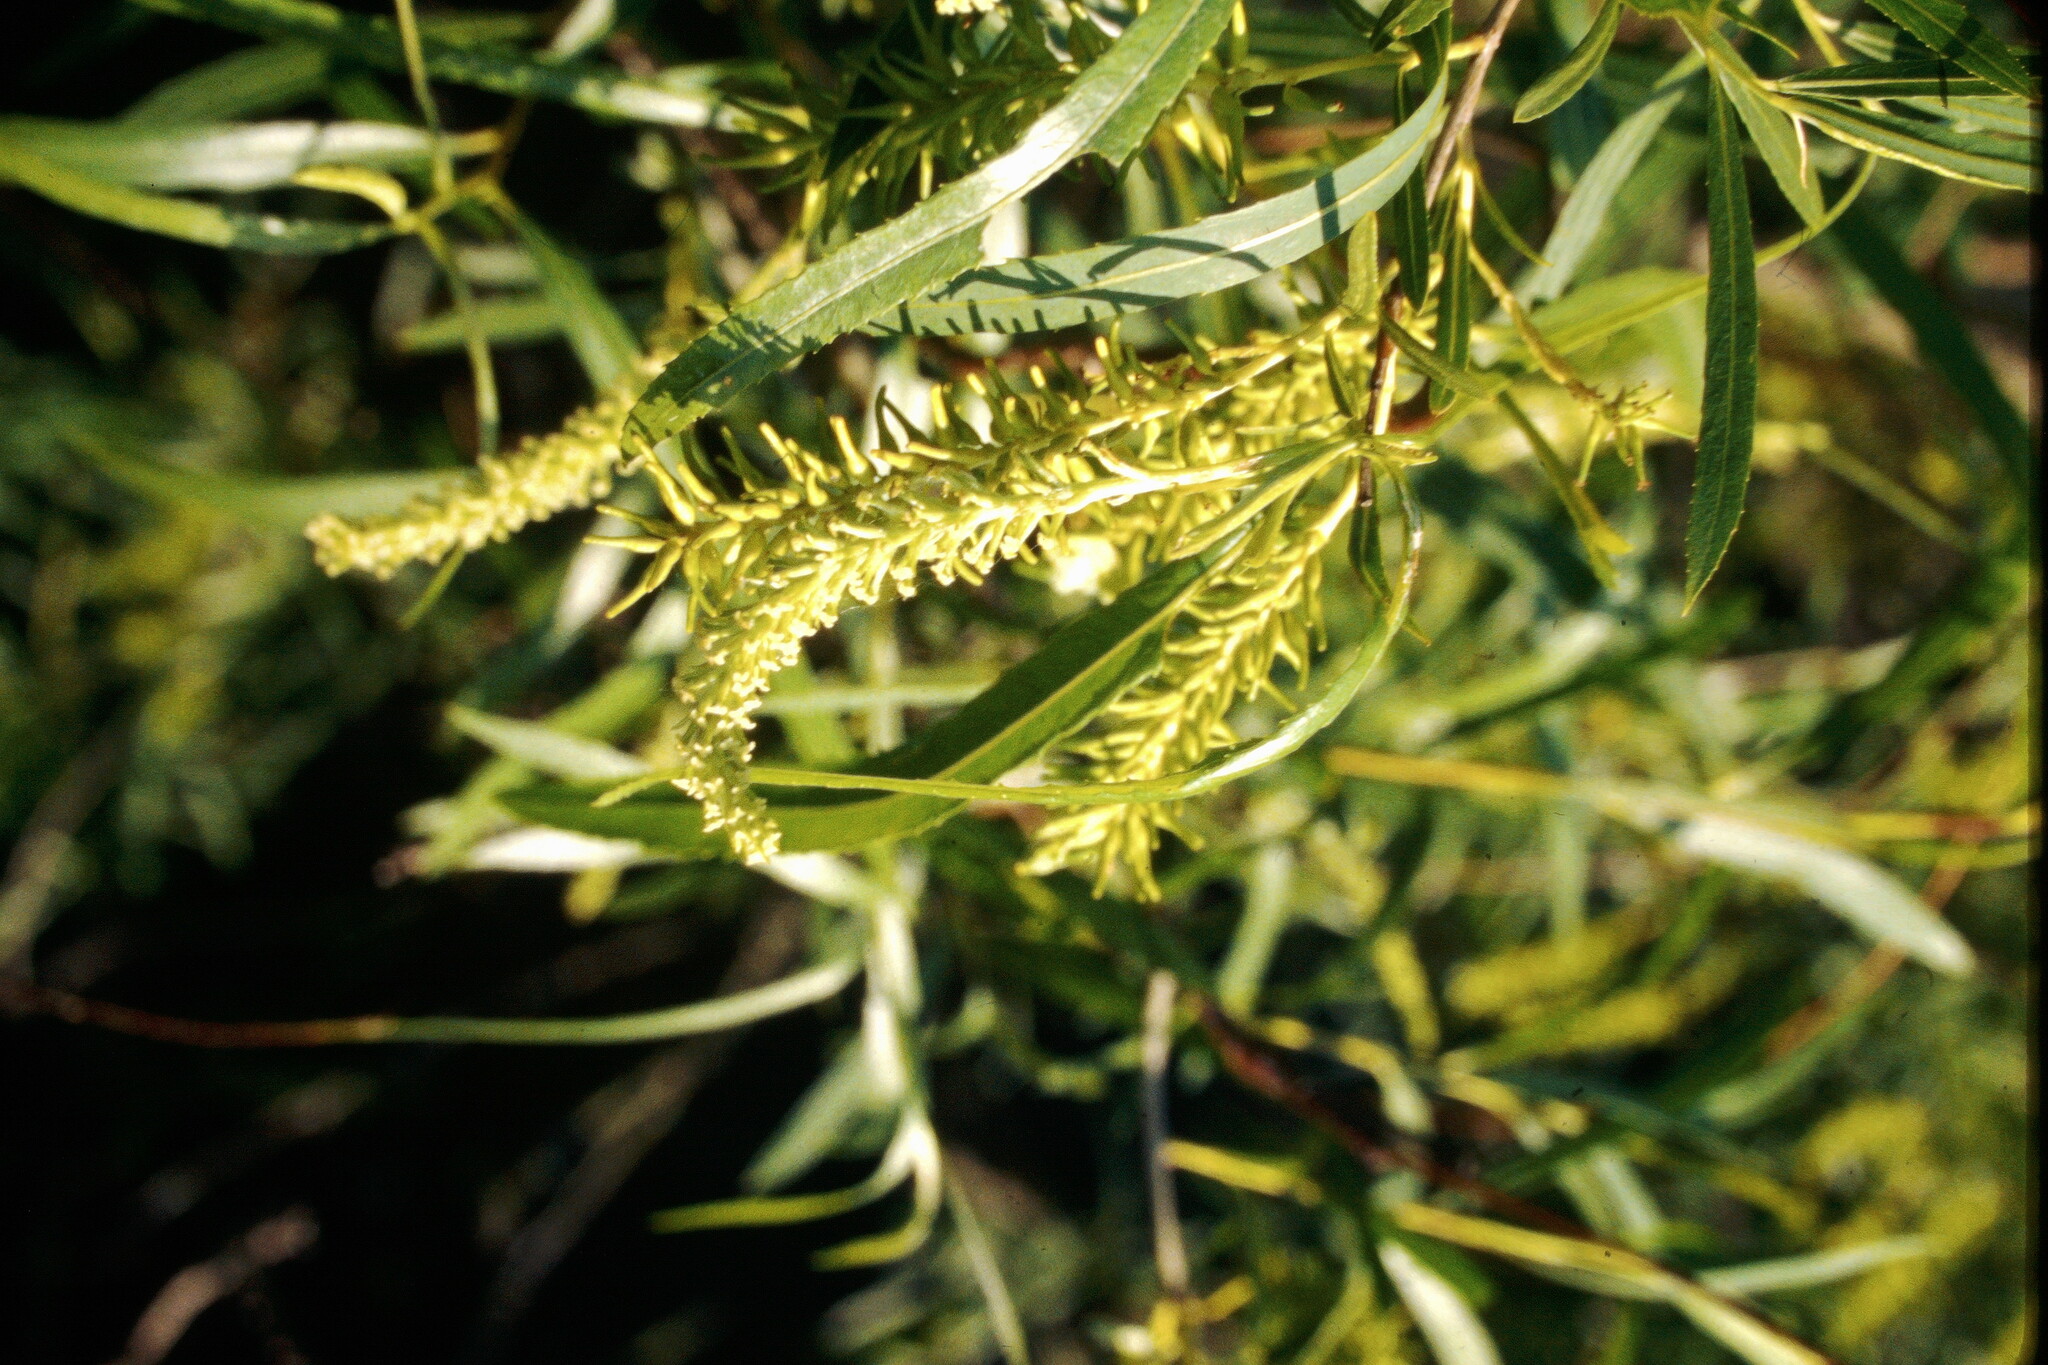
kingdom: Plantae
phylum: Tracheophyta
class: Magnoliopsida
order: Malpighiales
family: Salicaceae
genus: Salix
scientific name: Salix interior
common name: Sandbar willow
